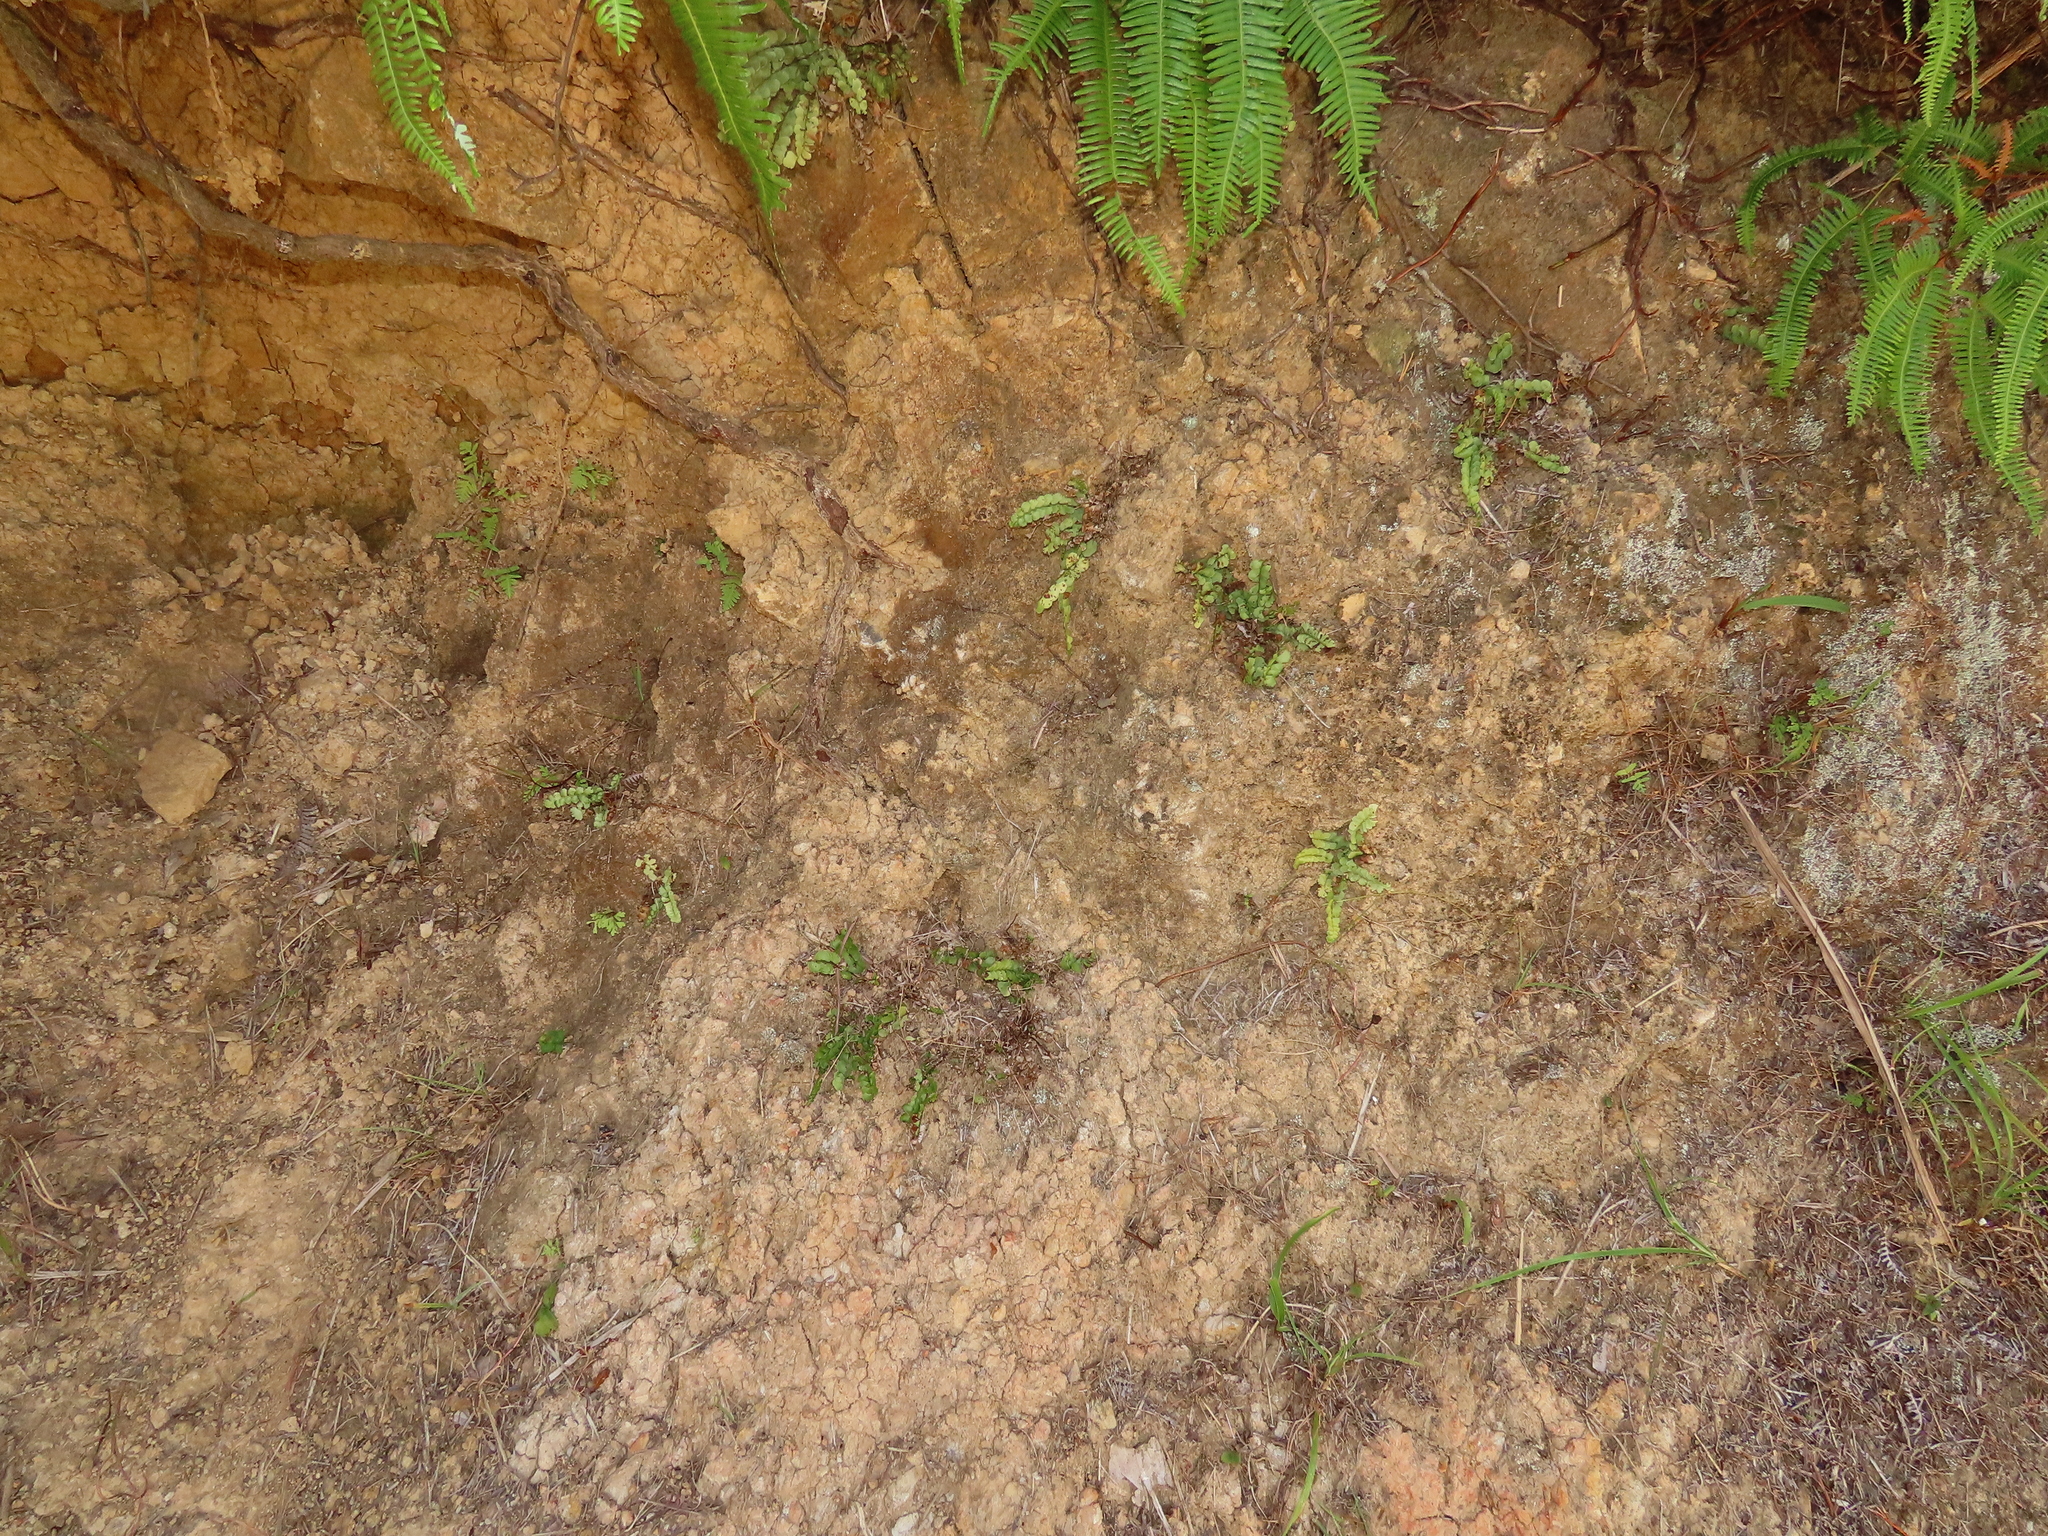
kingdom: Plantae
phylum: Tracheophyta
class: Polypodiopsida
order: Polypodiales
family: Lindsaeaceae
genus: Lindsaea
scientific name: Lindsaea orbiculata
